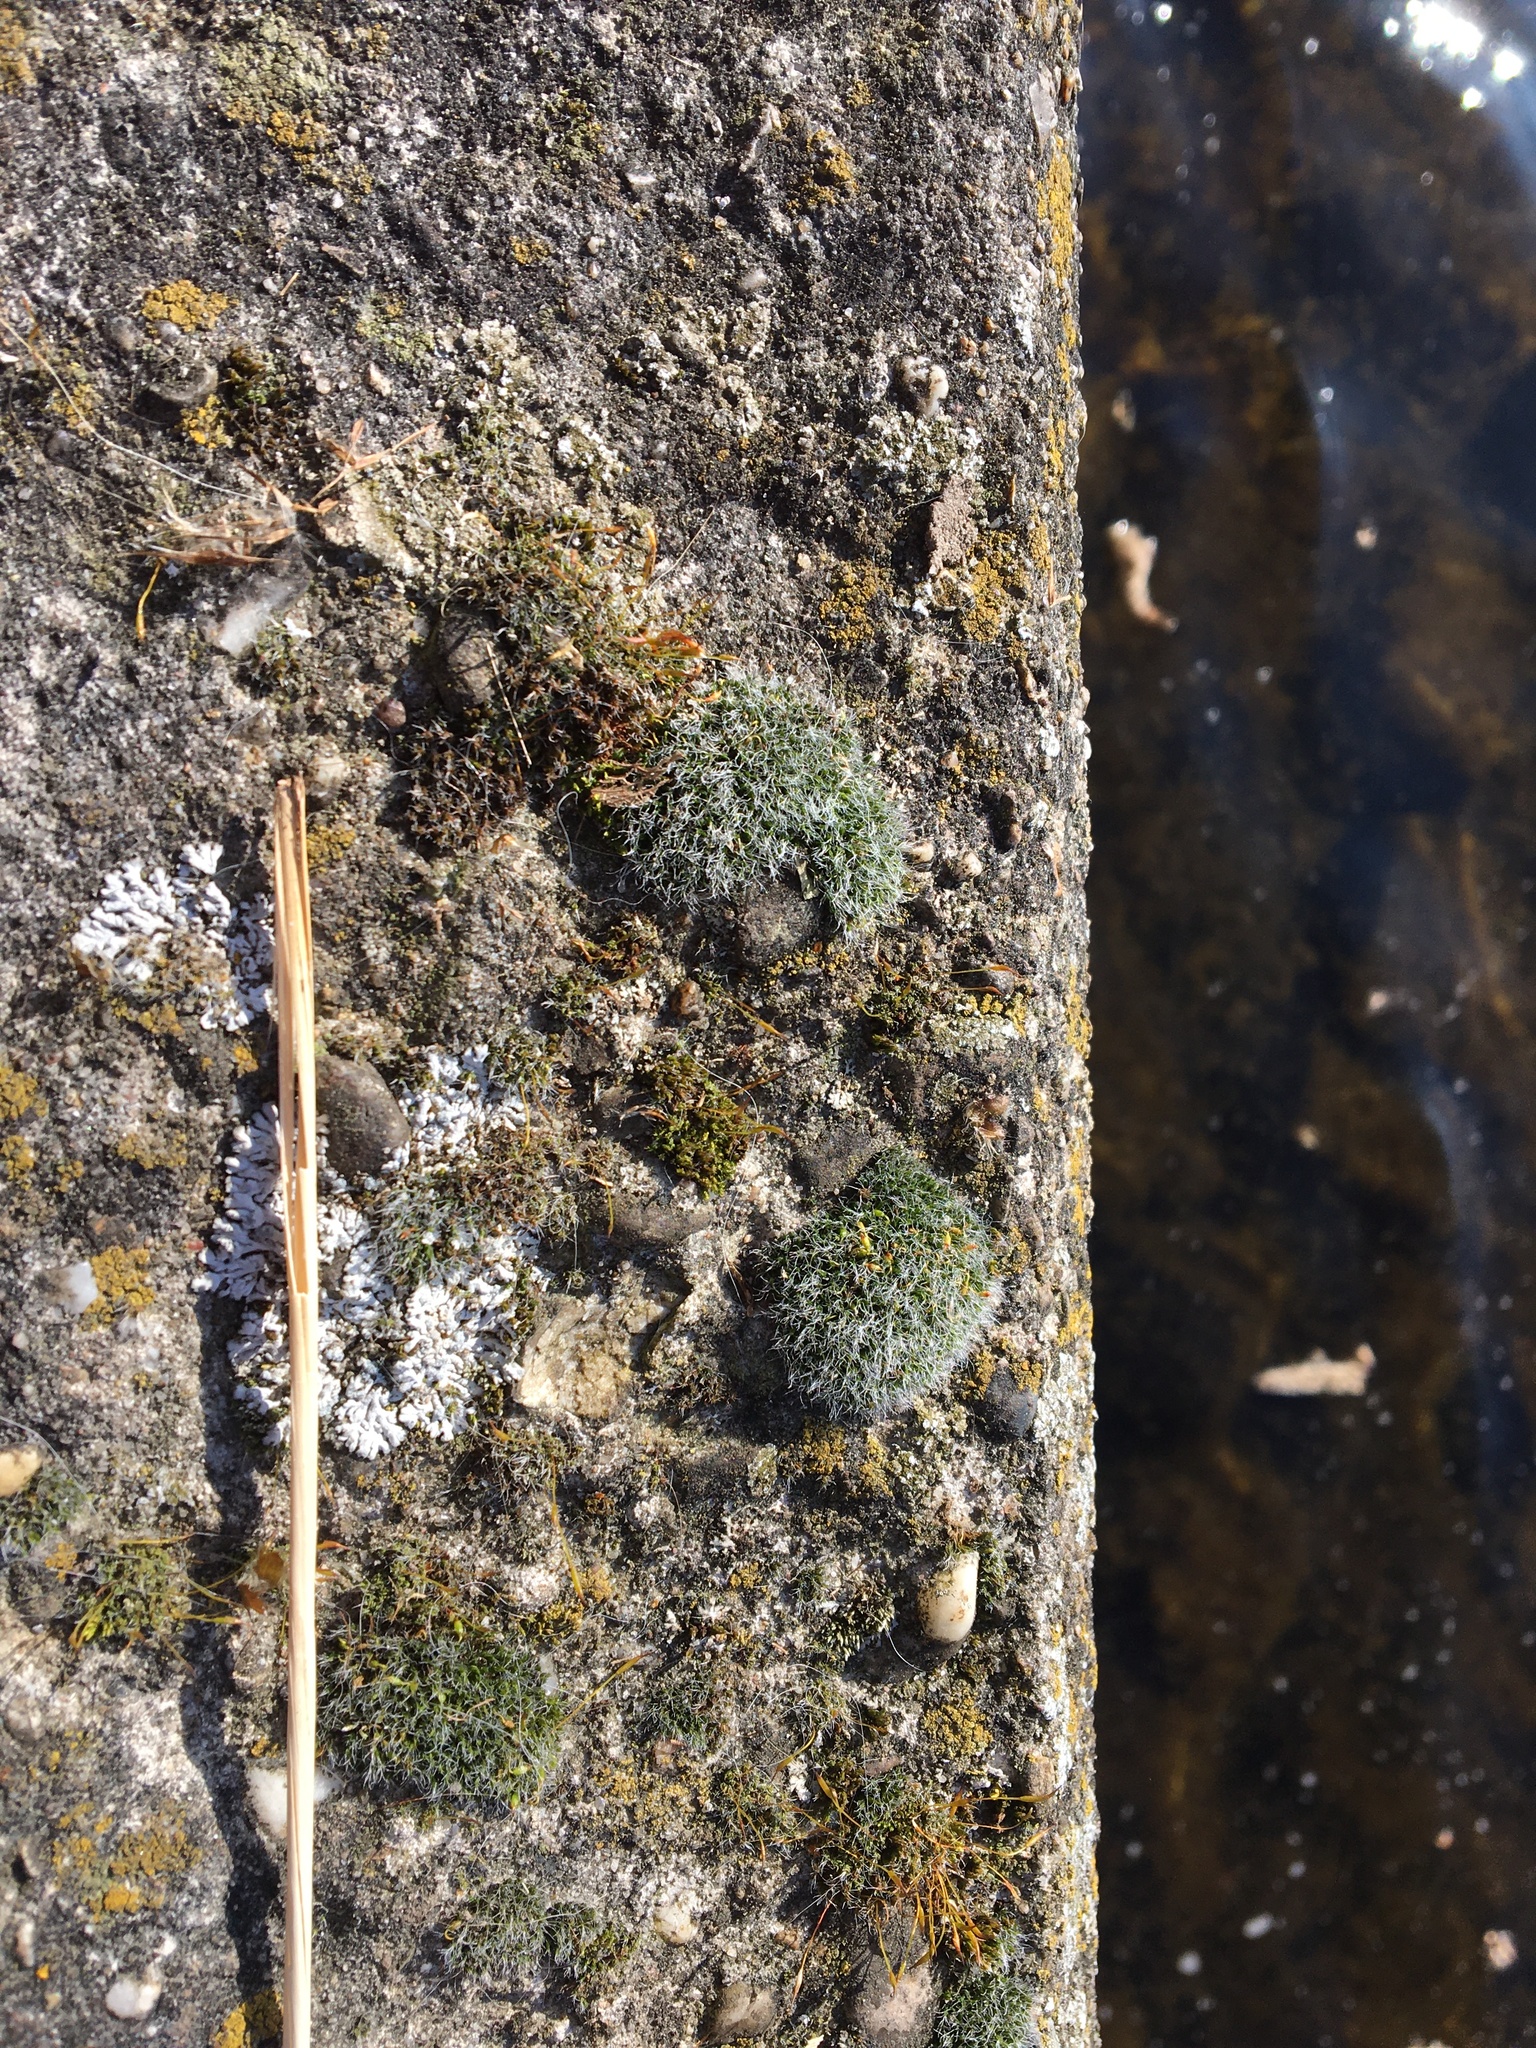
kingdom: Plantae
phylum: Bryophyta
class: Bryopsida
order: Grimmiales
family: Grimmiaceae
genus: Grimmia
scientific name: Grimmia pulvinata
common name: Grey-cushioned grimmia
